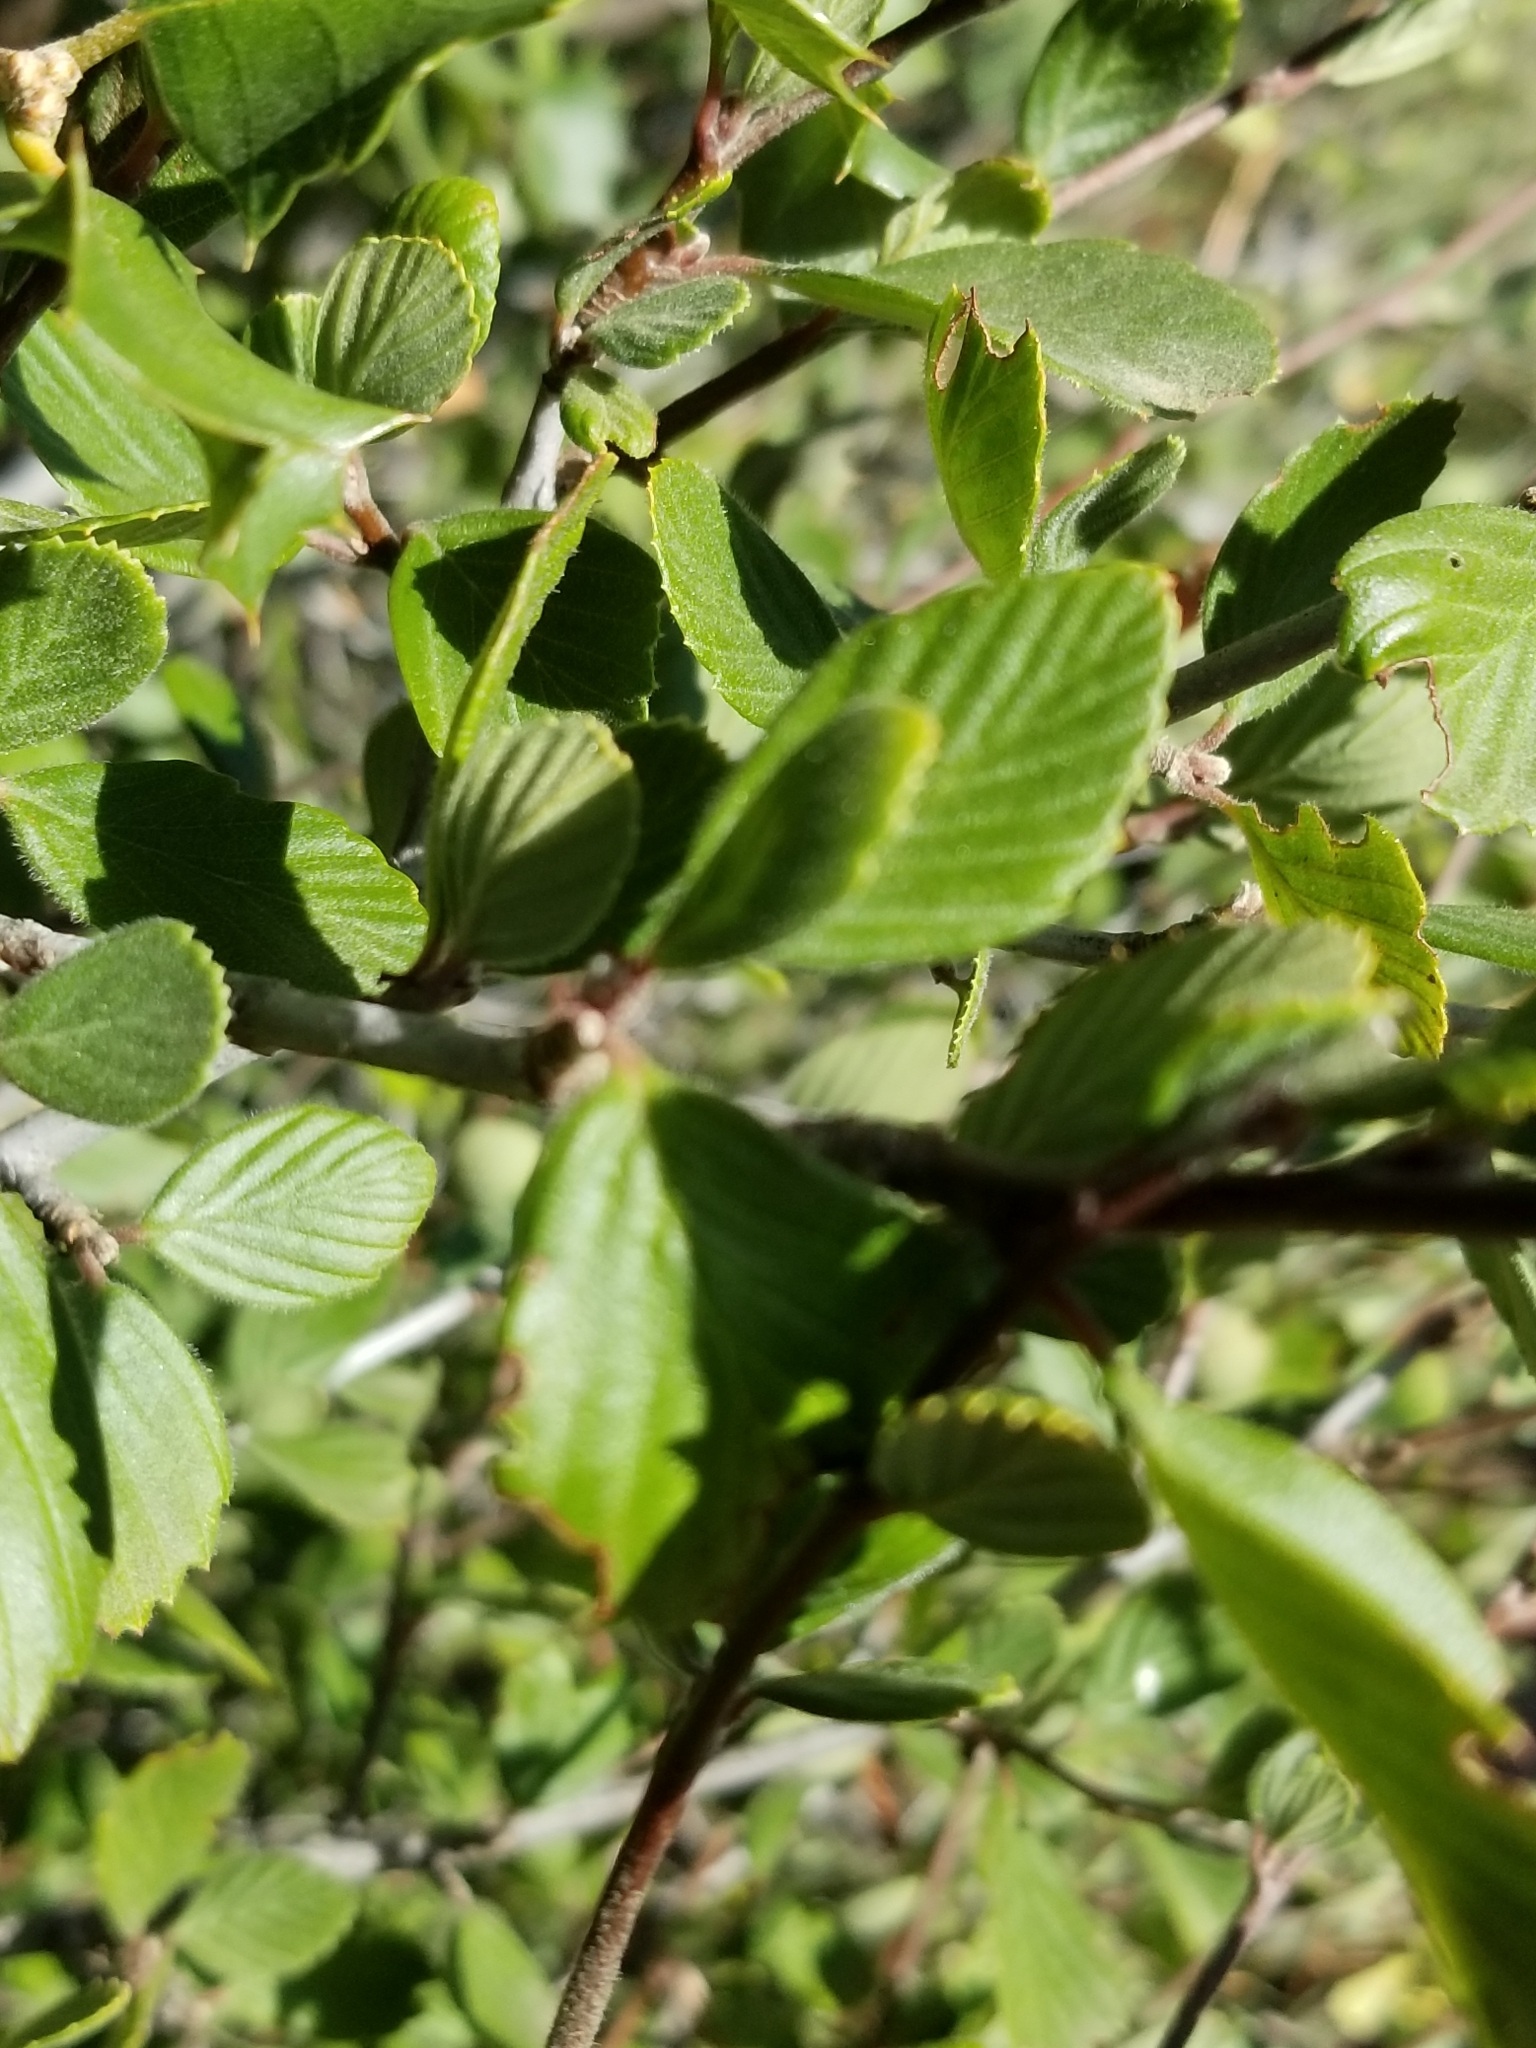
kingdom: Plantae
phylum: Tracheophyta
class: Magnoliopsida
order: Rosales
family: Rosaceae
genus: Cercocarpus
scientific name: Cercocarpus betuloides
